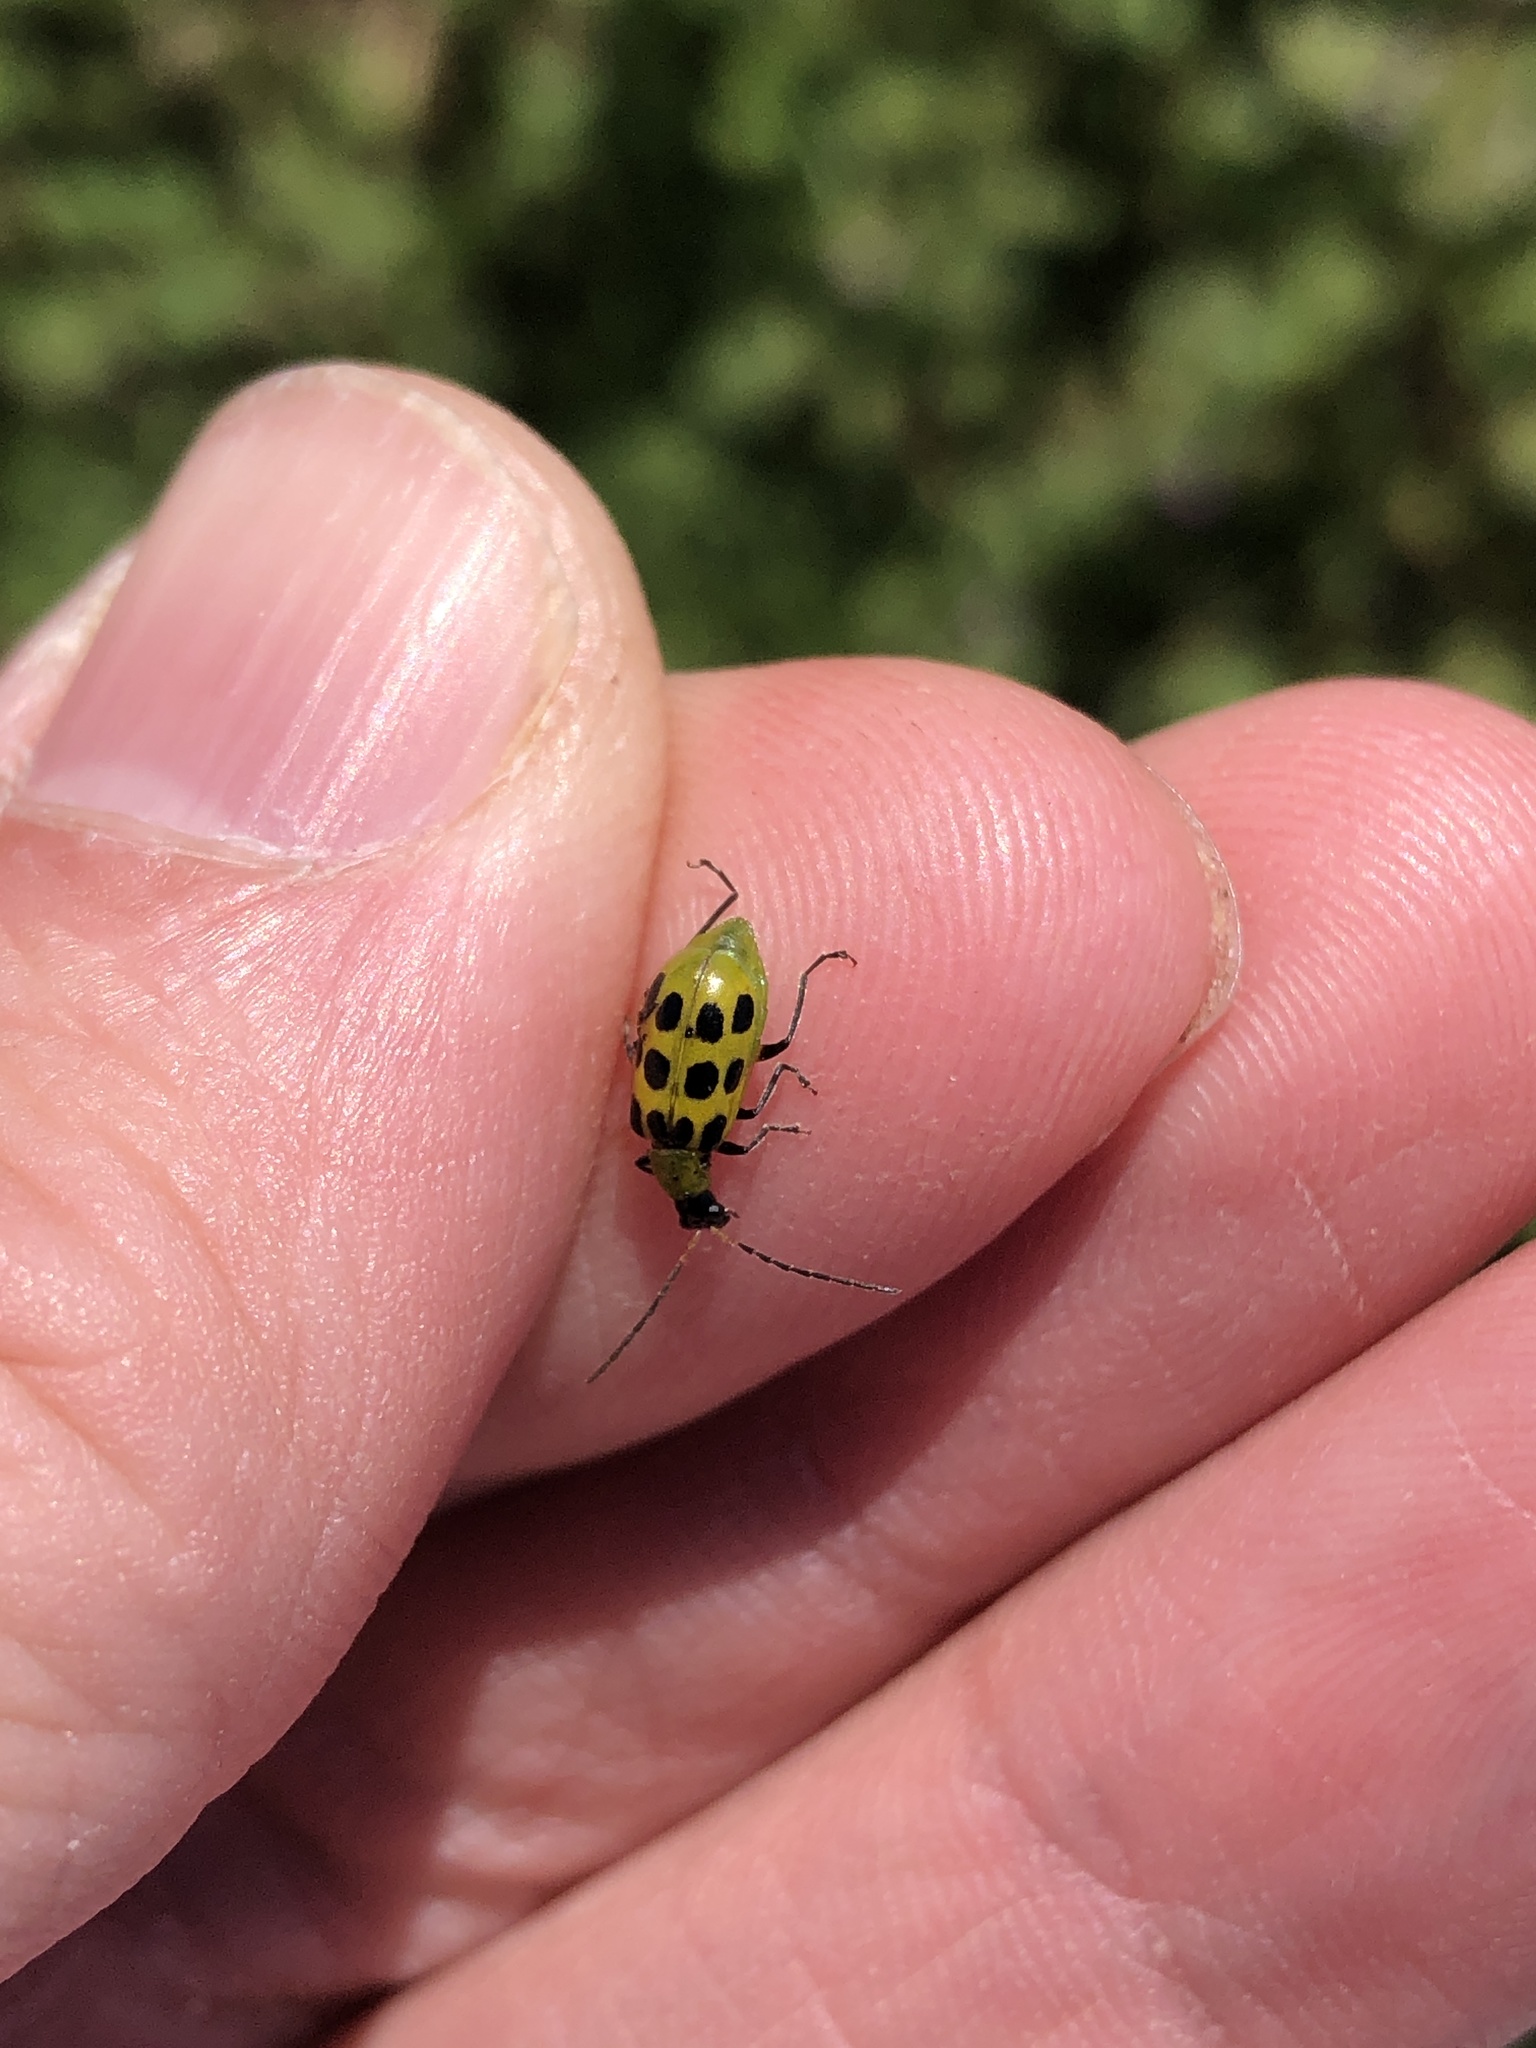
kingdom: Animalia
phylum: Arthropoda
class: Insecta
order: Coleoptera
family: Chrysomelidae
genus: Diabrotica
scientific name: Diabrotica undecimpunctata
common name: Spotted cucumber beetle
